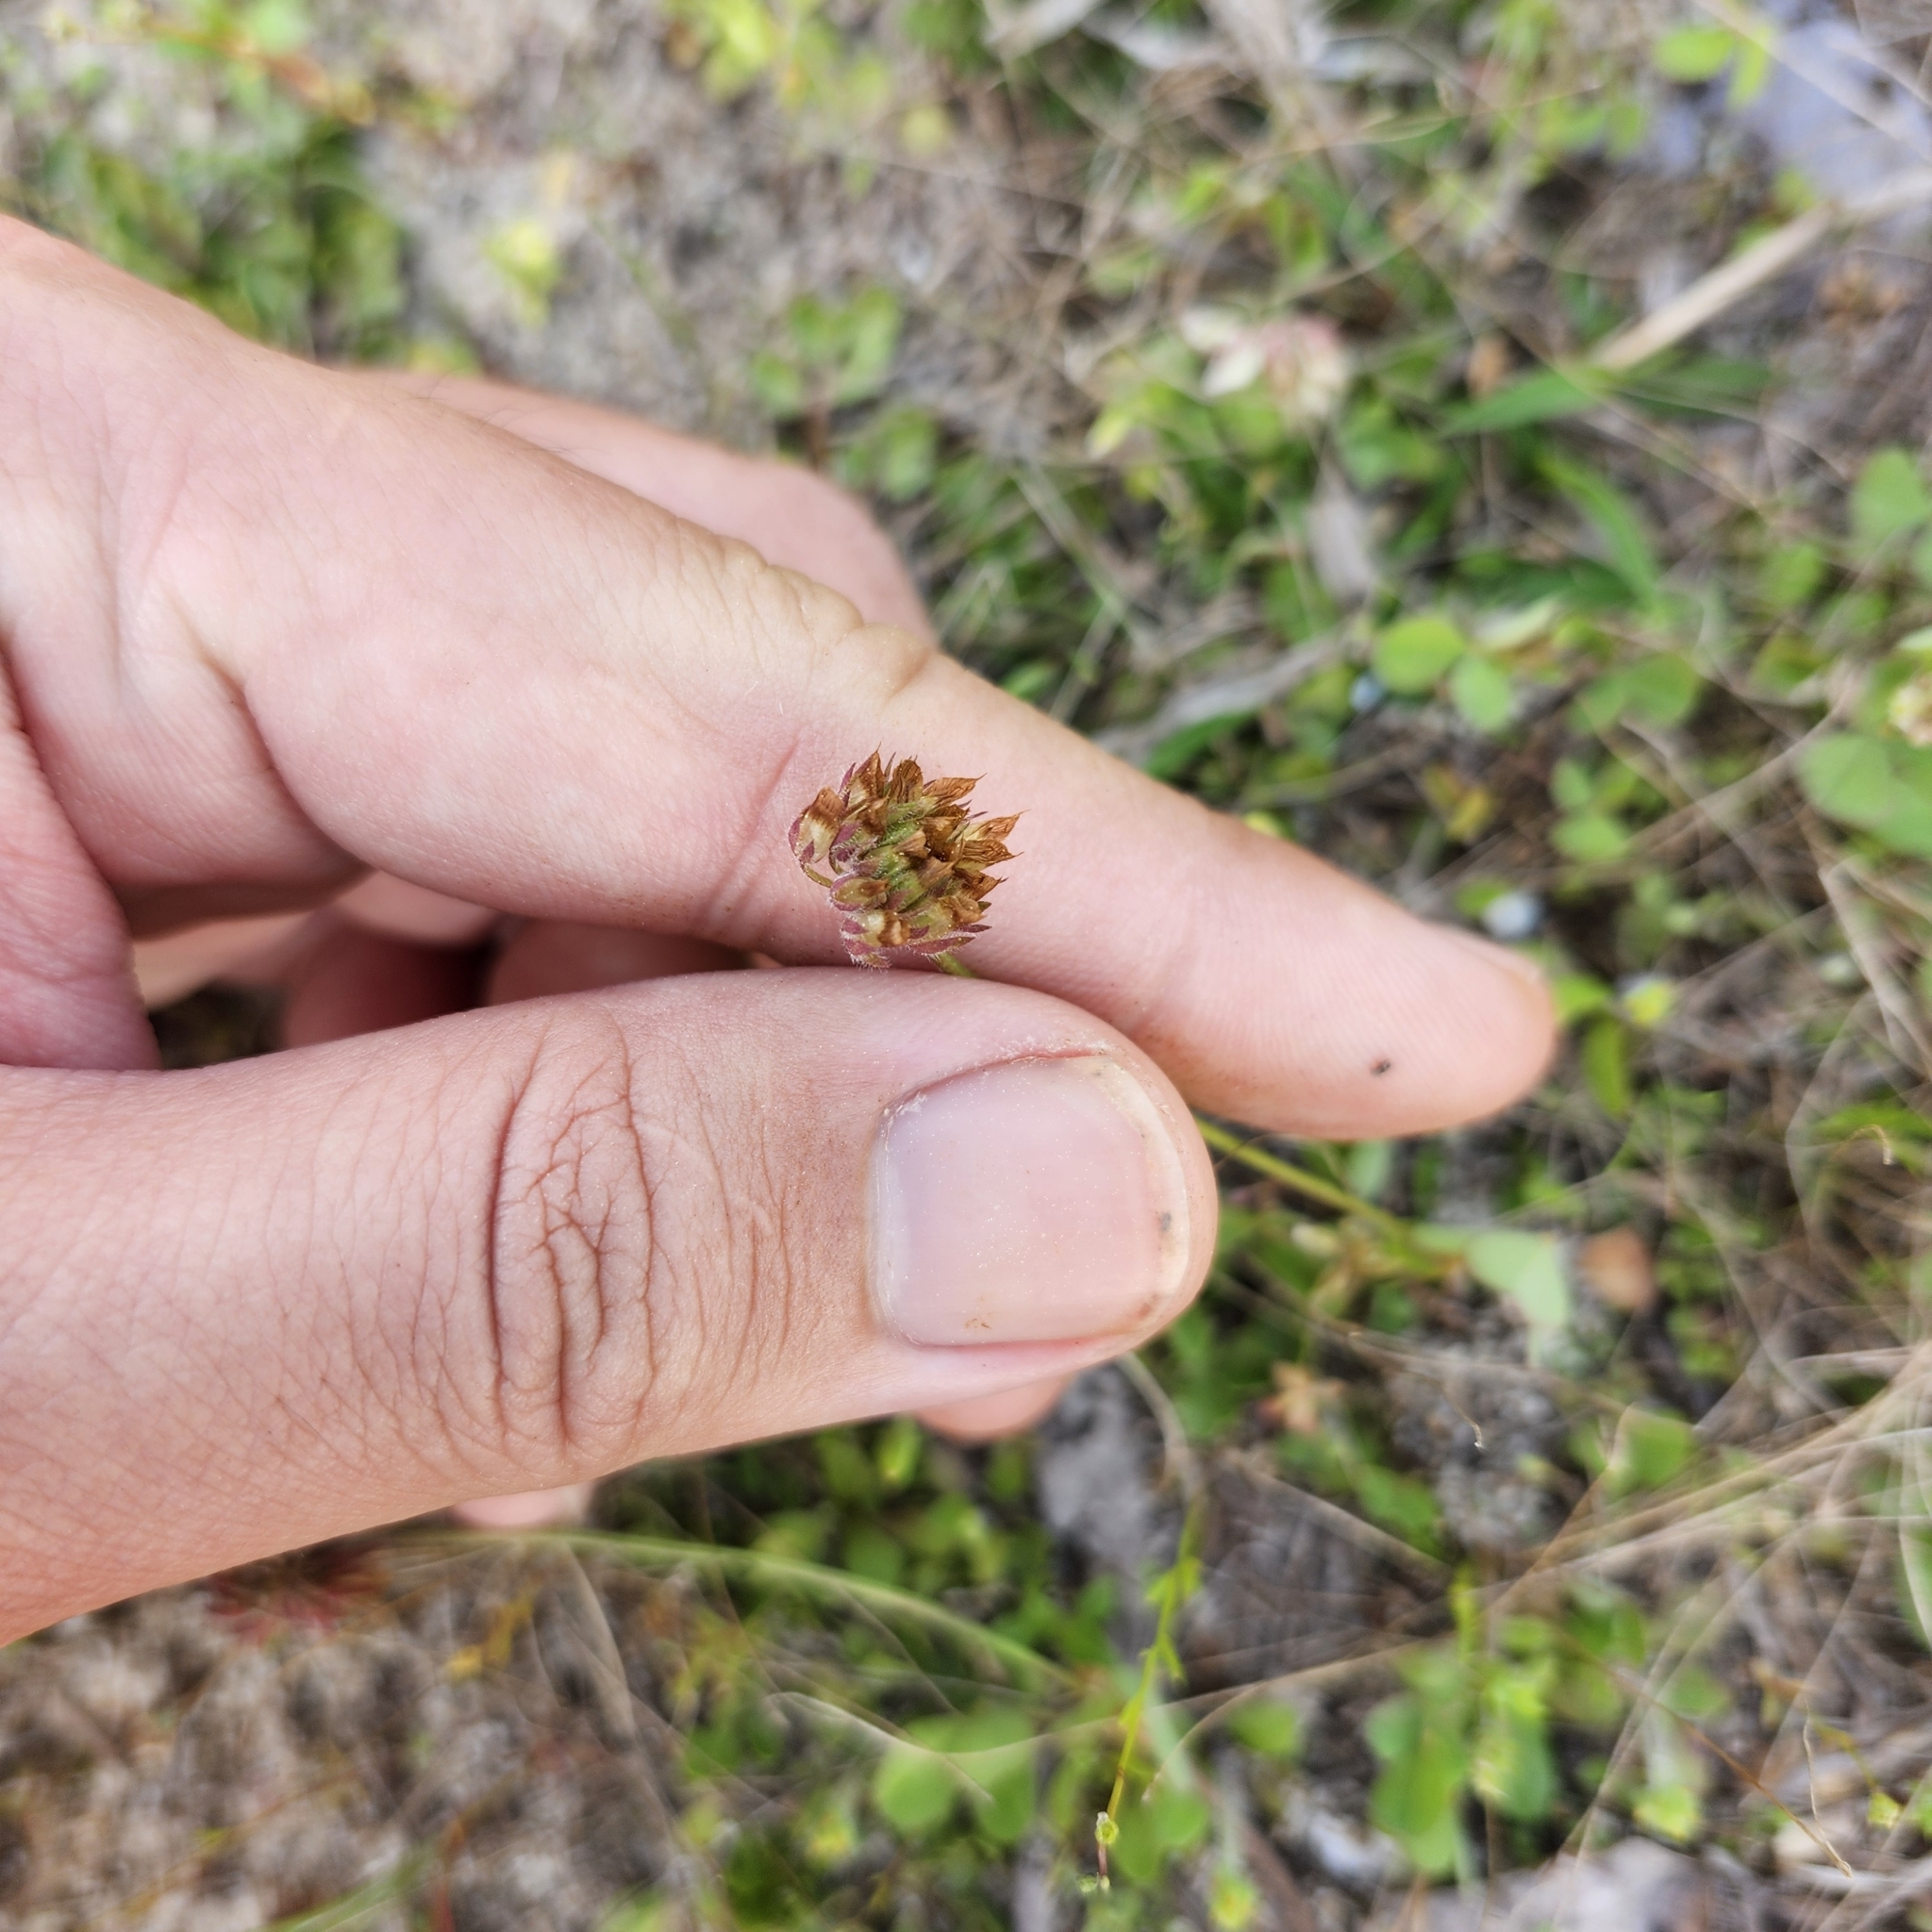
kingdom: Plantae
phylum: Tracheophyta
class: Magnoliopsida
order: Fabales
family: Fabaceae
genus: Trifolium
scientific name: Trifolium carolinianum
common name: Wild white clover
